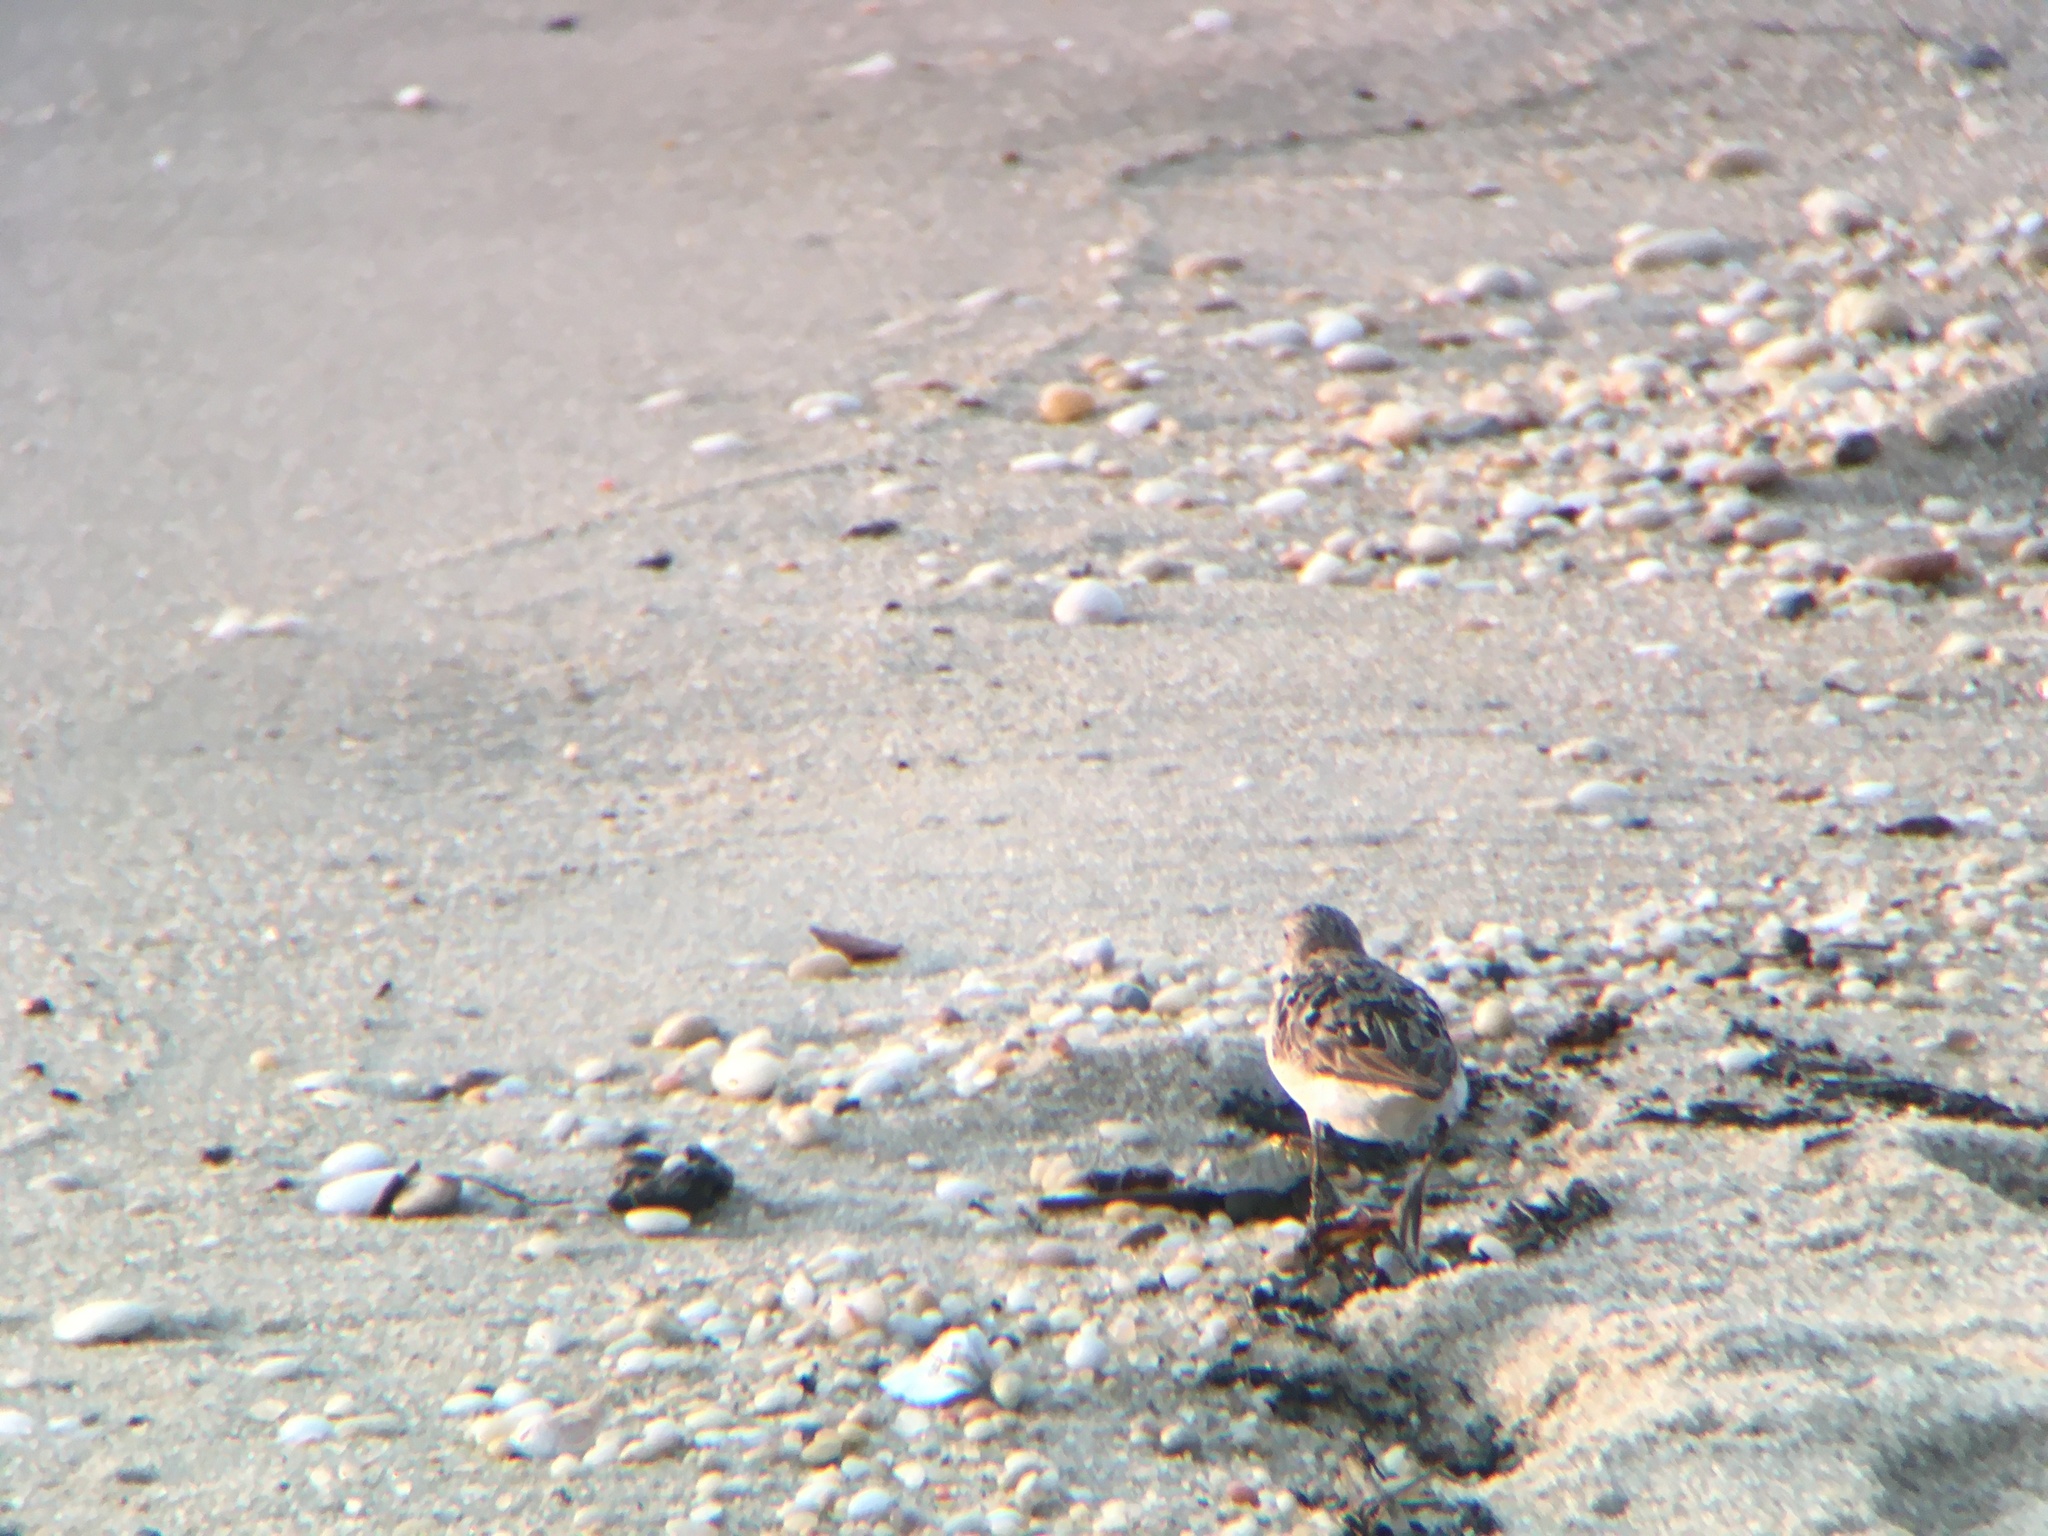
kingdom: Animalia
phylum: Chordata
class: Aves
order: Charadriiformes
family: Scolopacidae
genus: Calidris
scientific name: Calidris alba
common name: Sanderling
